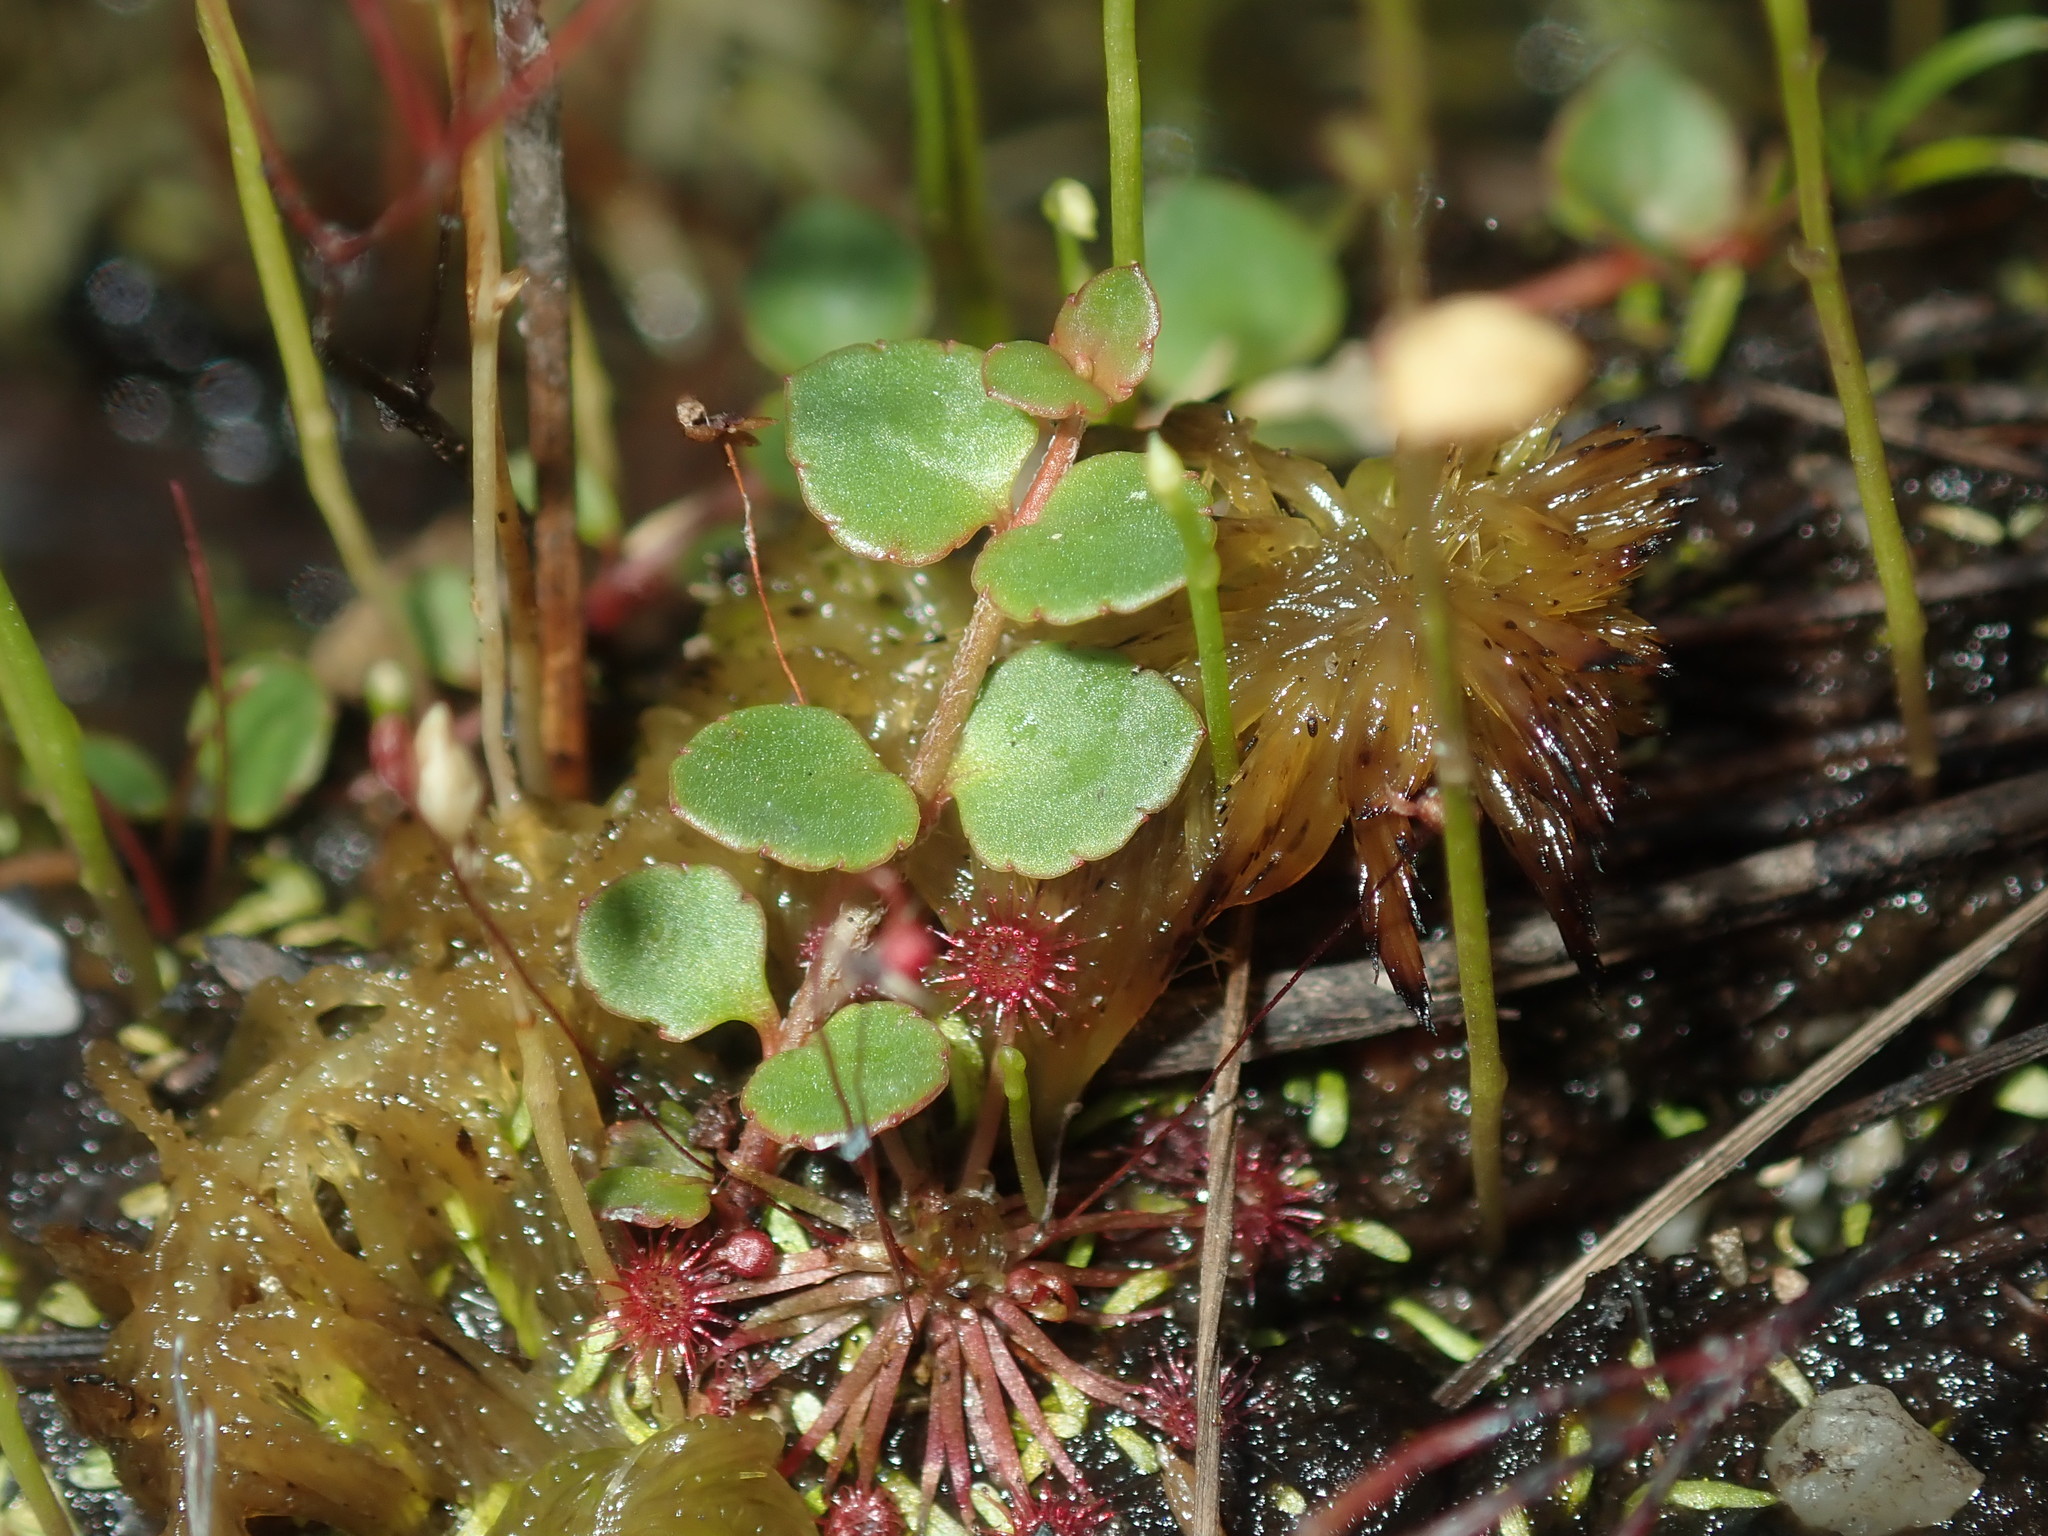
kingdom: Plantae
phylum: Tracheophyta
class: Magnoliopsida
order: Saxifragales
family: Haloragaceae
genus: Gonocarpus
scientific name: Gonocarpus micranthus
